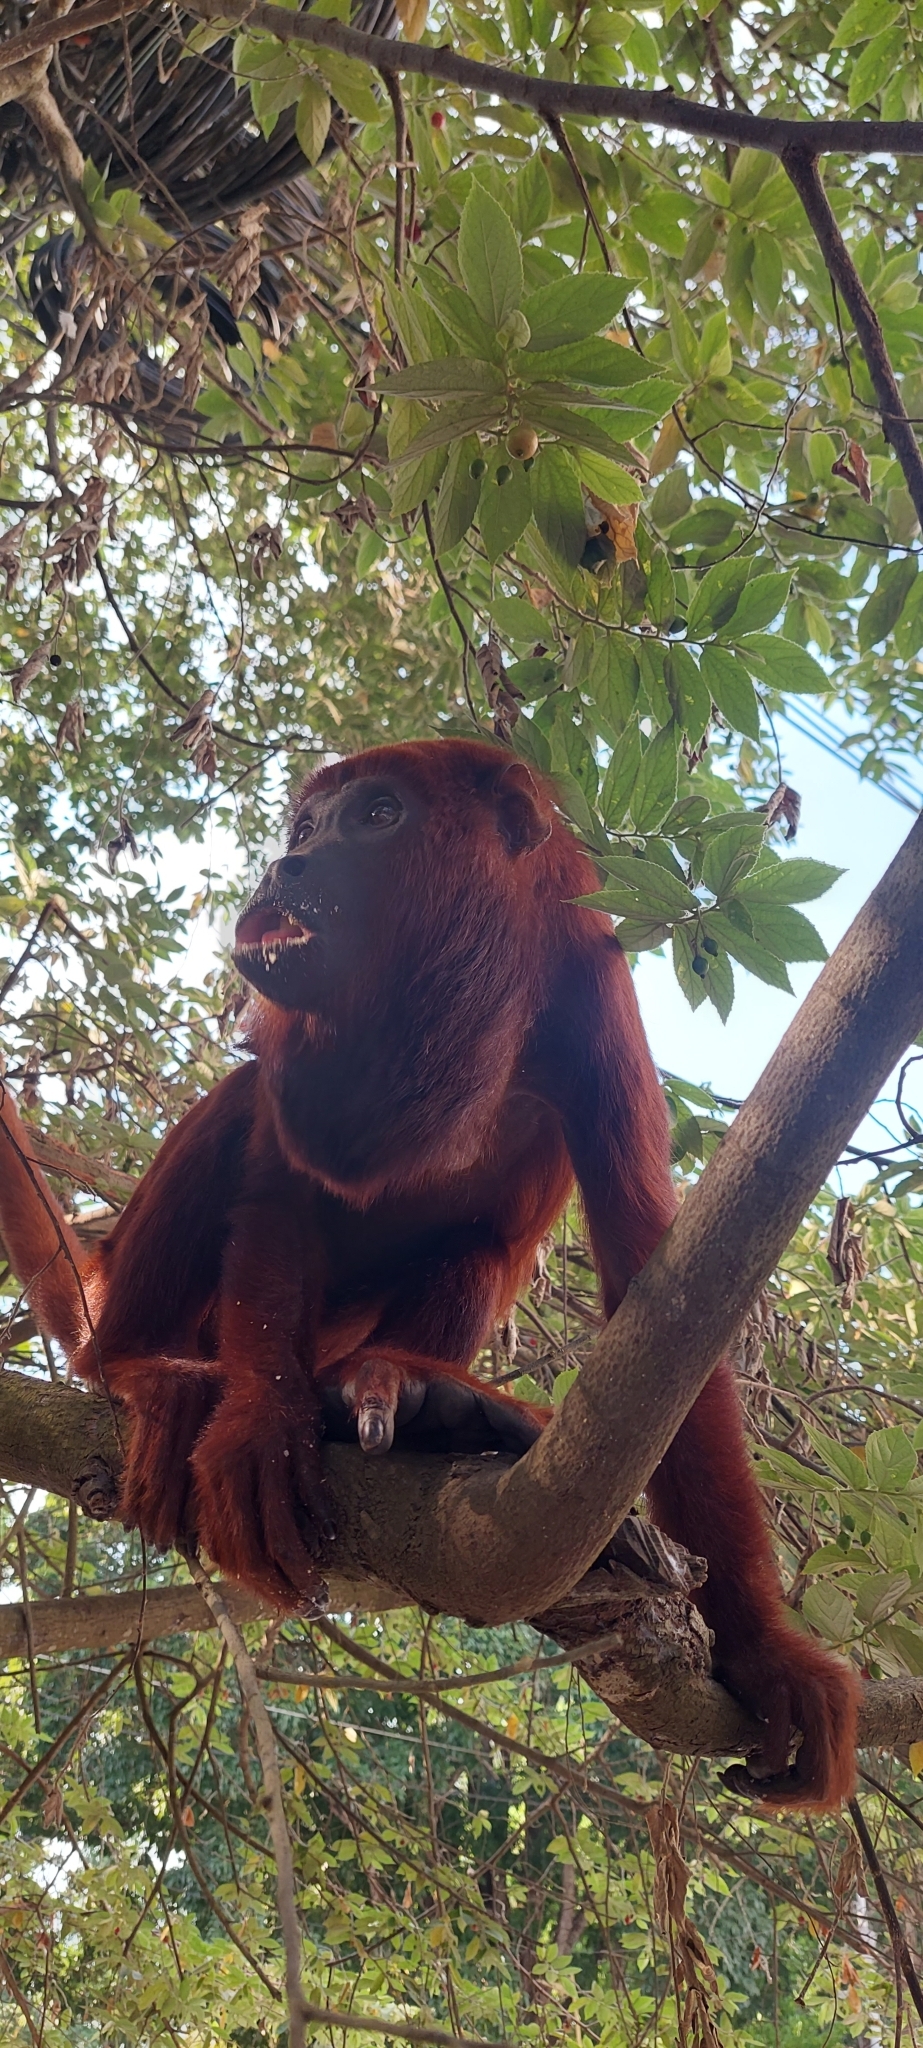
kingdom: Animalia
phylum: Chordata
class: Mammalia
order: Primates
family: Atelidae
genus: Alouatta
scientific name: Alouatta seniculus
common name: Venezuelan red howler
